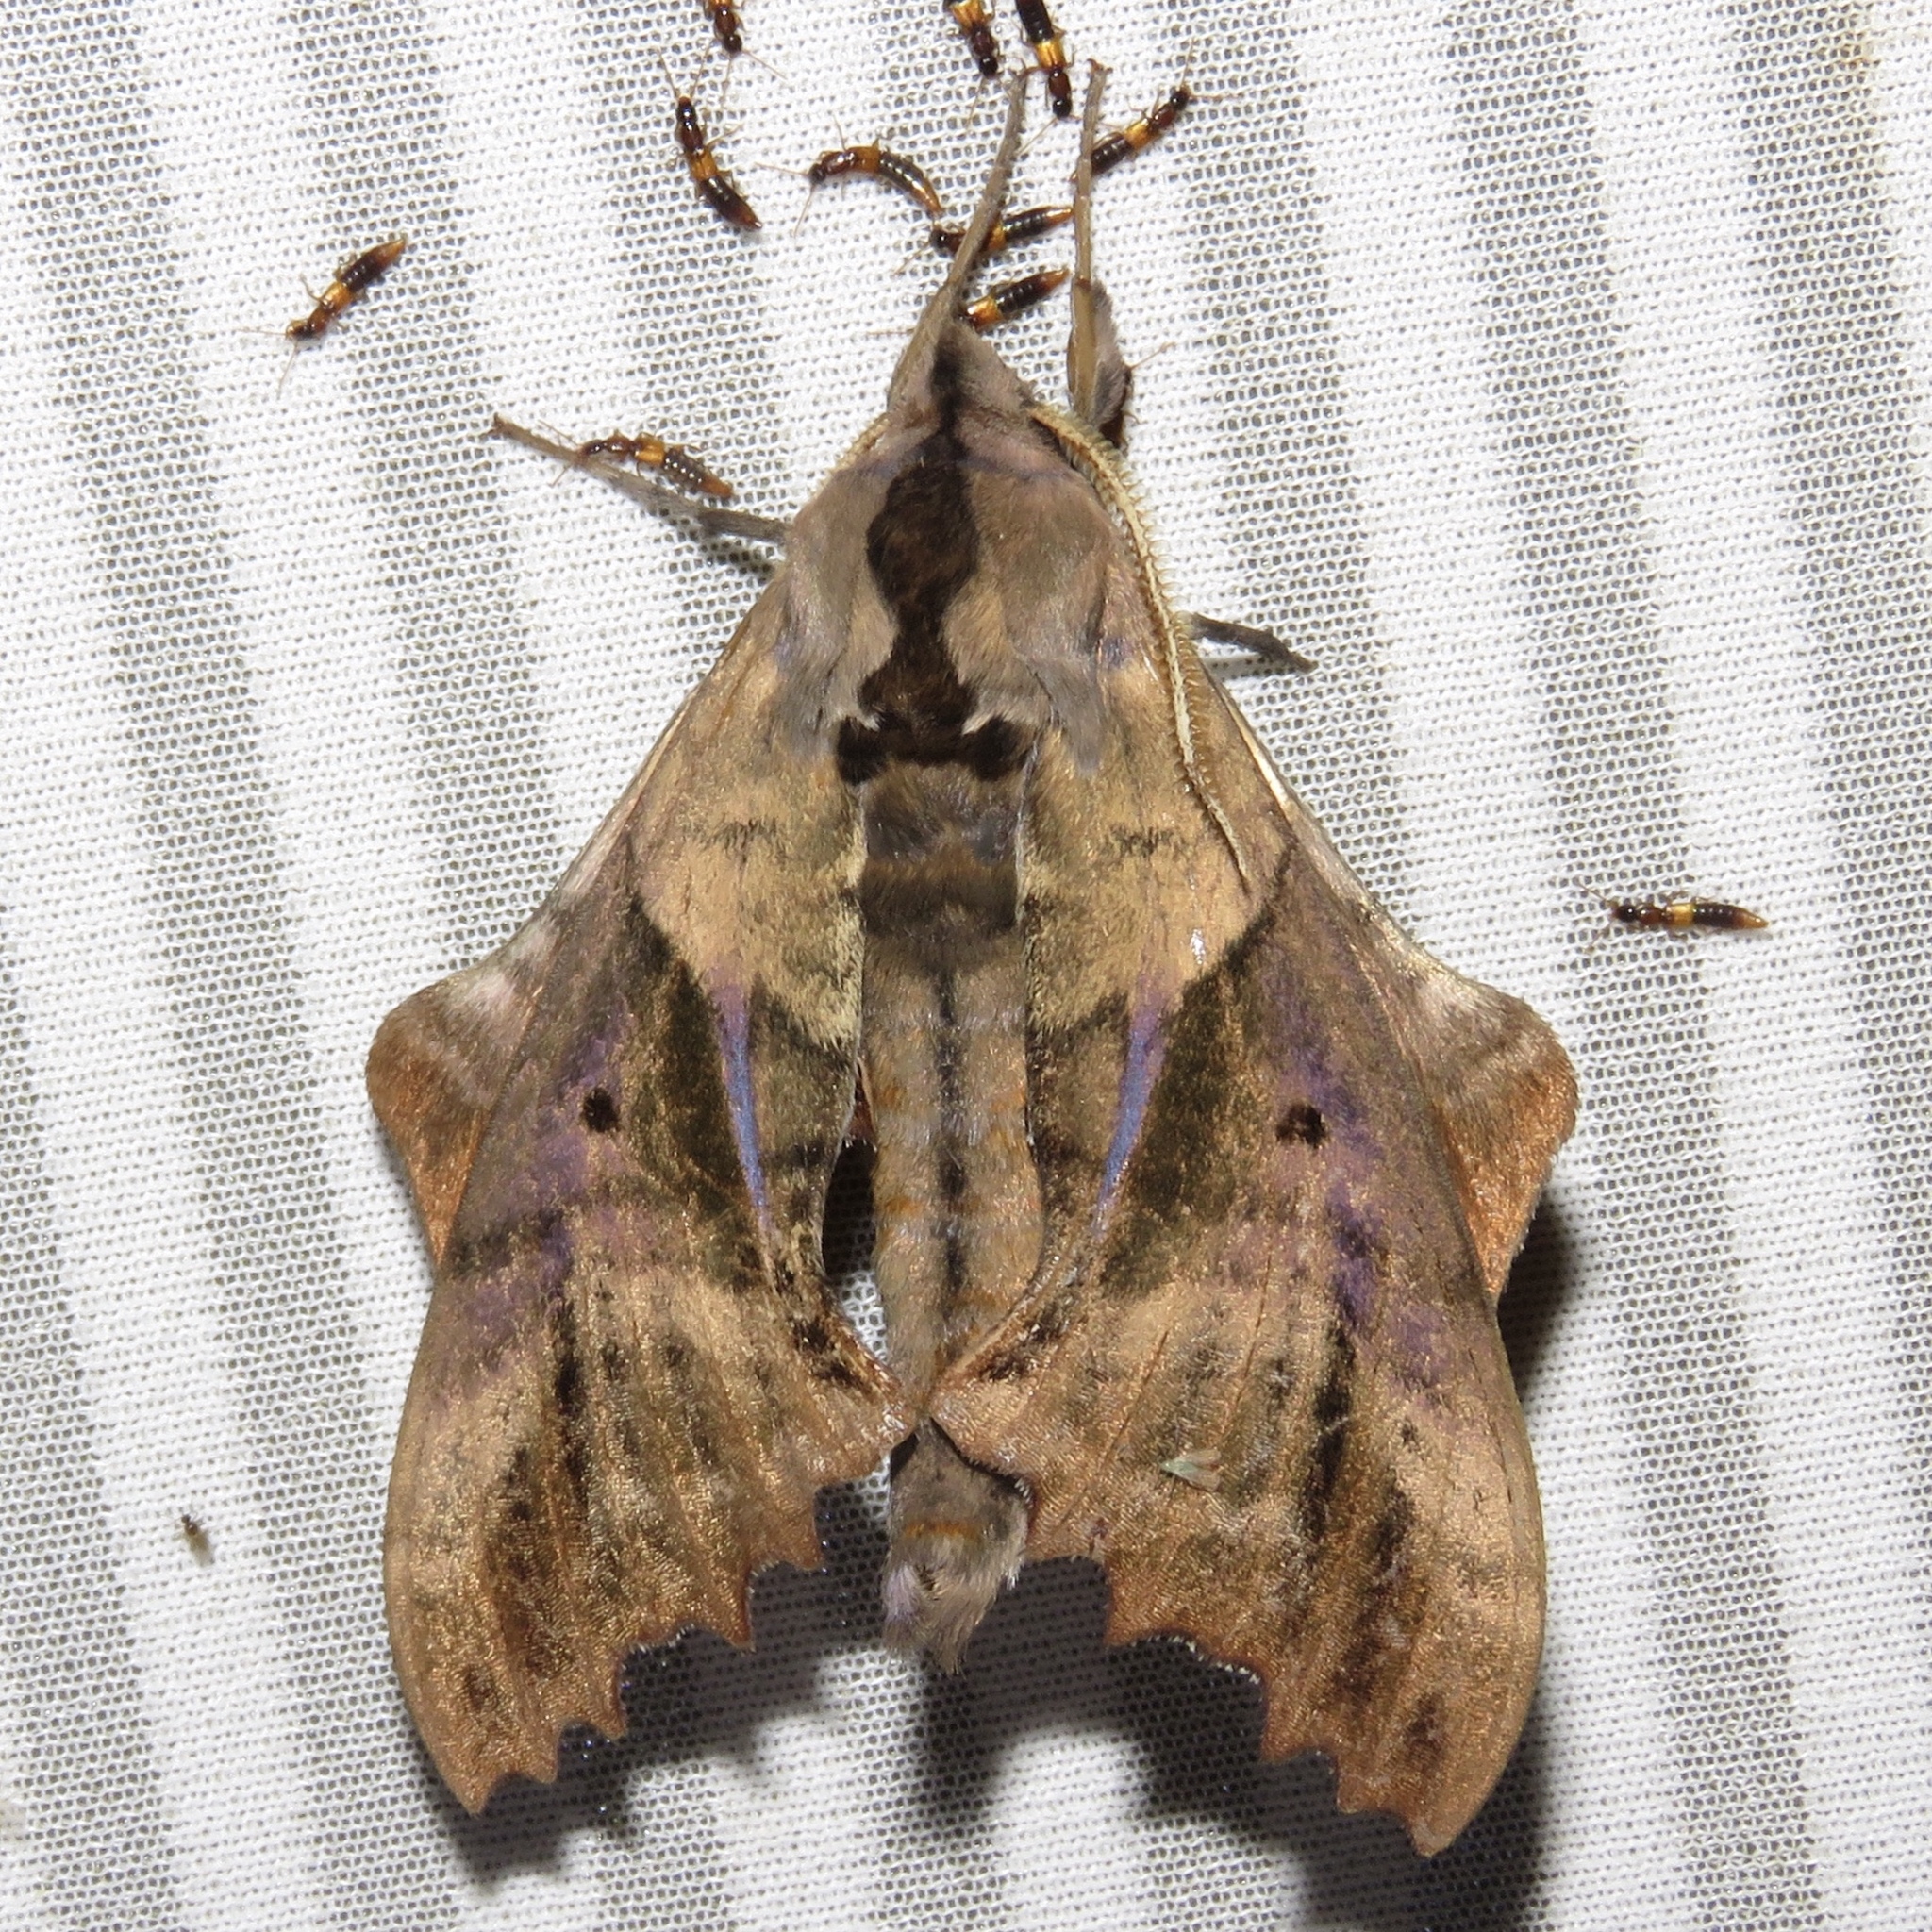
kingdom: Animalia
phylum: Arthropoda
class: Insecta
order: Lepidoptera
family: Sphingidae
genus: Paonias
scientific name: Paonias excaecata
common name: Blind-eyed sphinx
